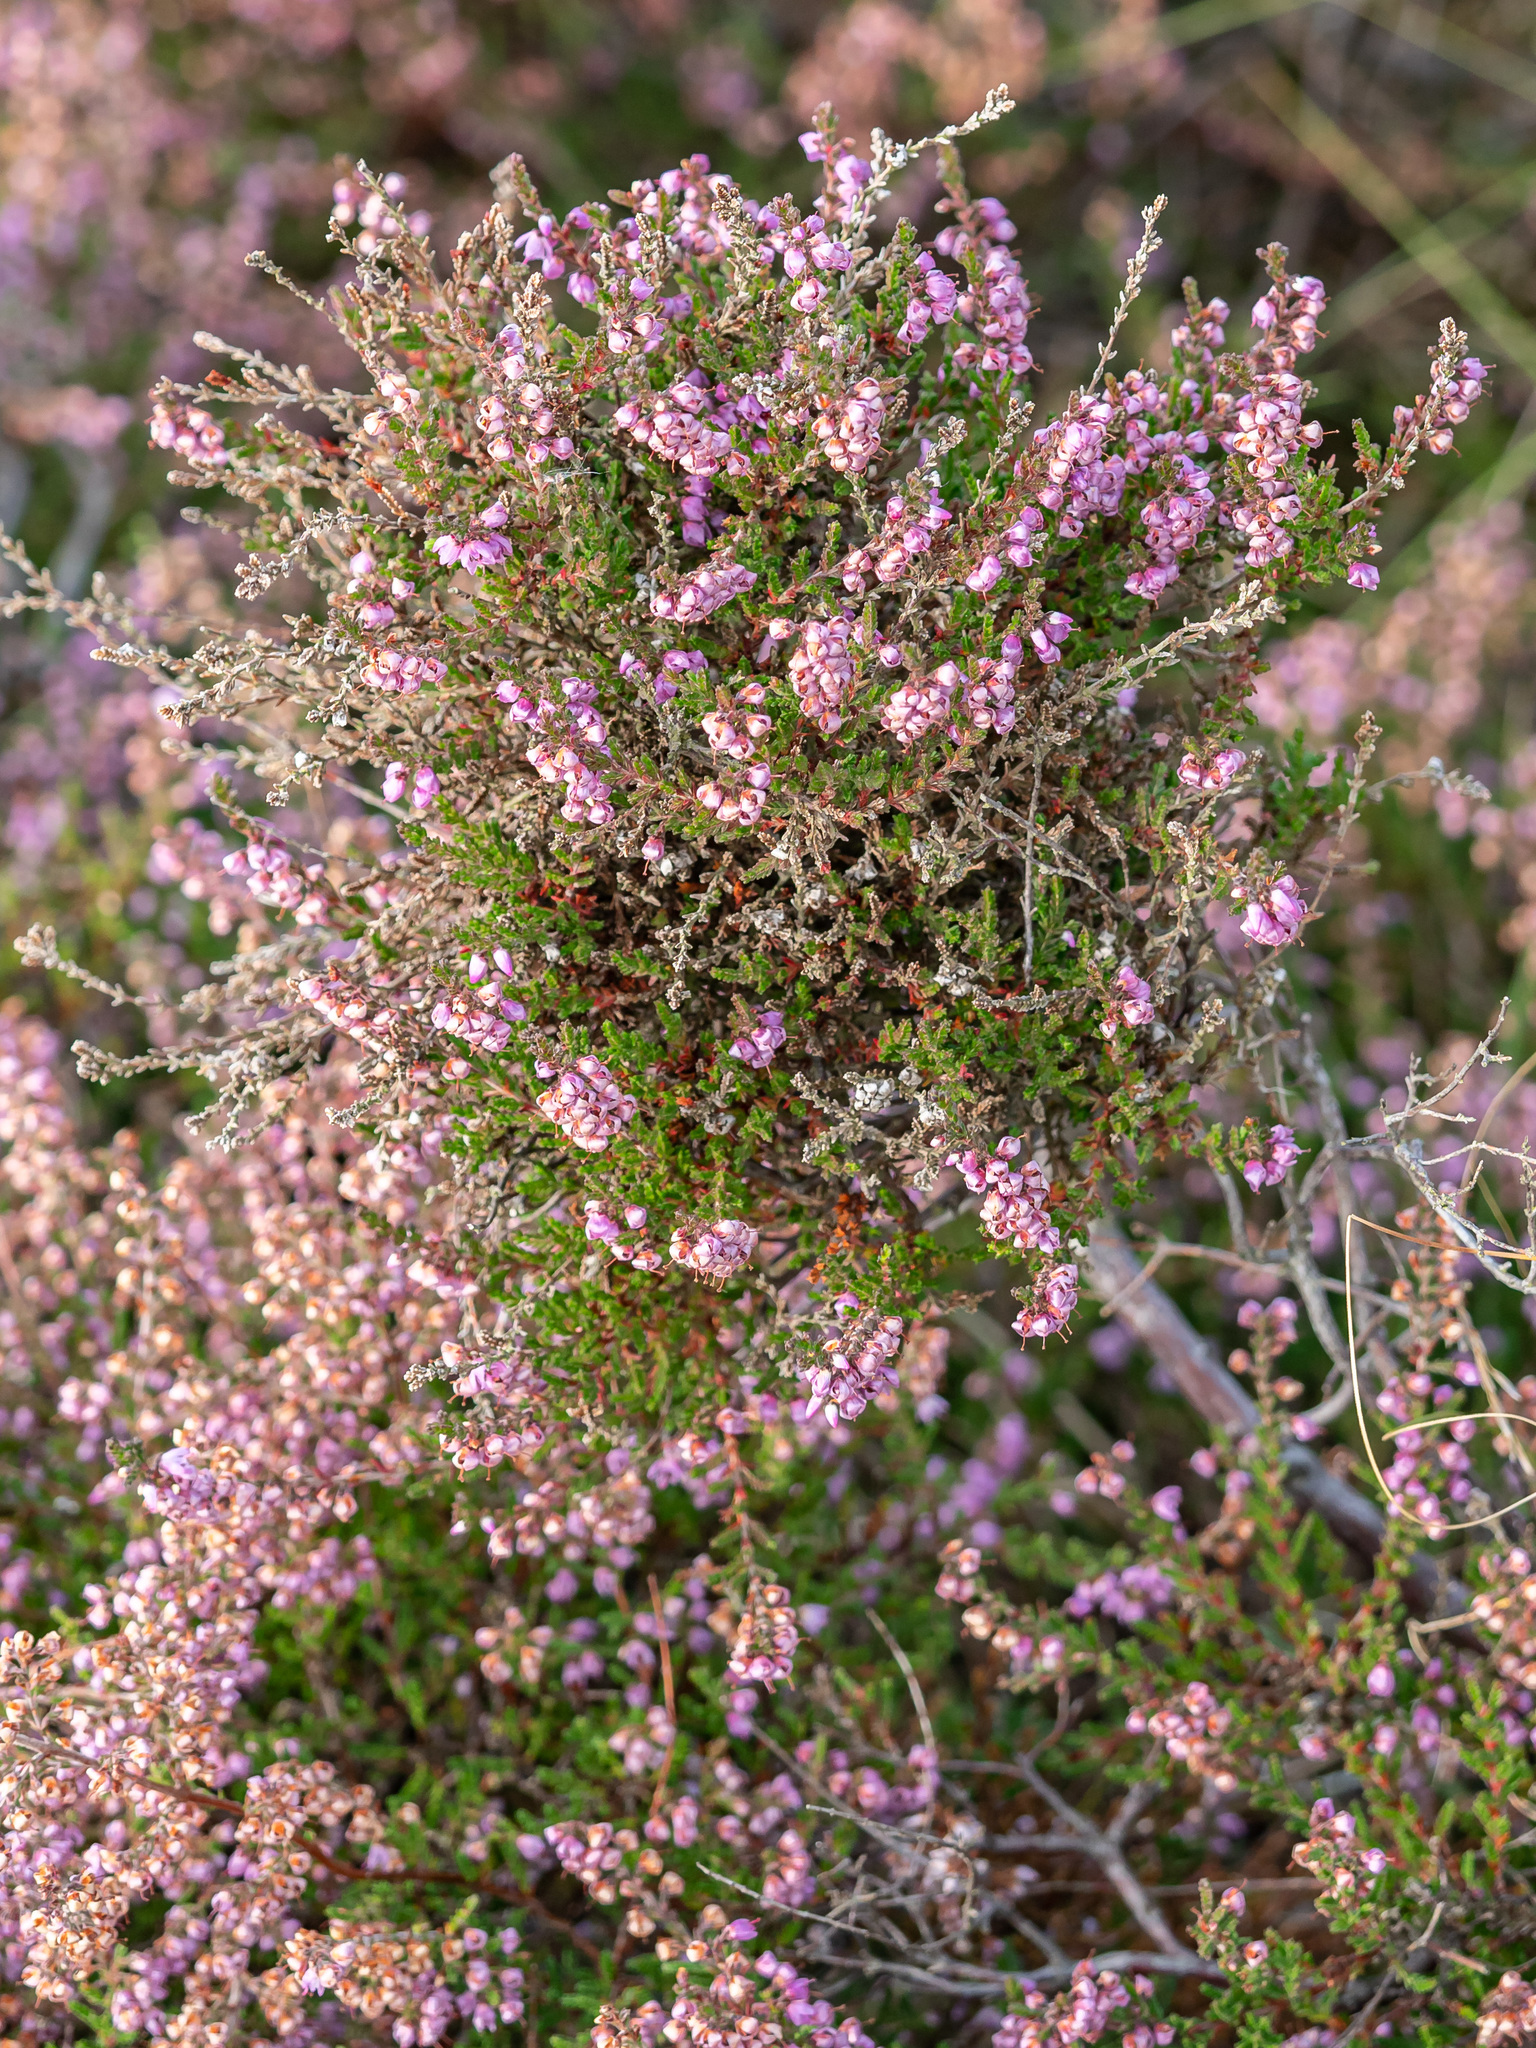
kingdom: Plantae
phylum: Tracheophyta
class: Magnoliopsida
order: Ericales
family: Ericaceae
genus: Calluna
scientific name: Calluna vulgaris
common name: Heather
